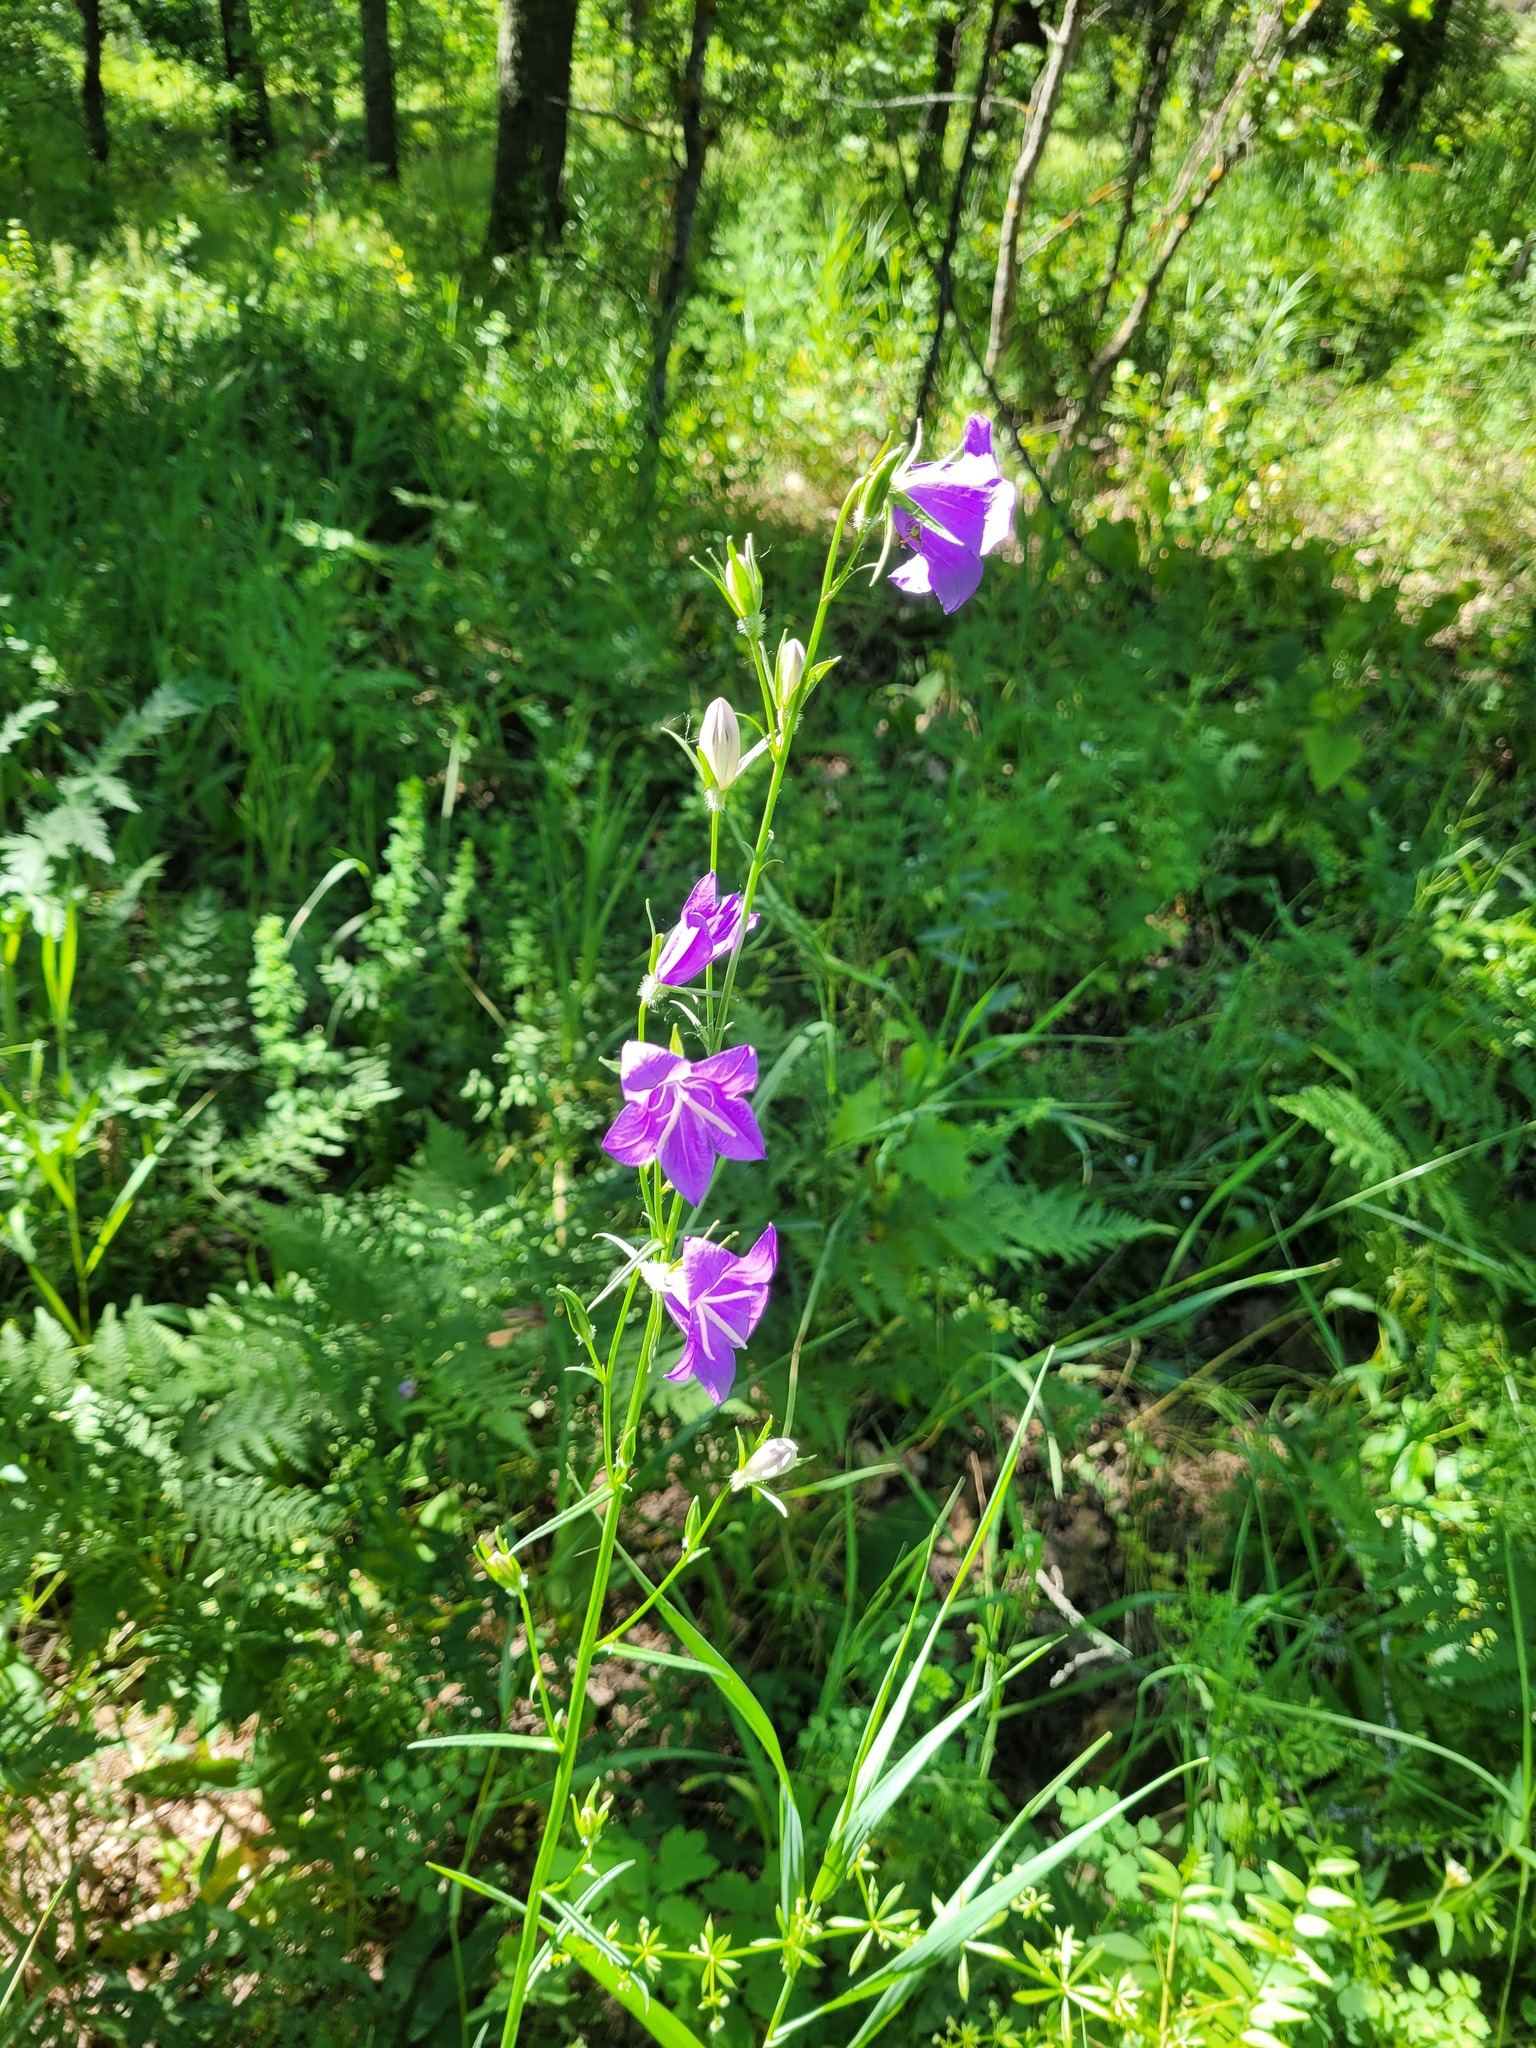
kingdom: Plantae
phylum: Tracheophyta
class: Magnoliopsida
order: Asterales
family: Campanulaceae
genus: Campanula
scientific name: Campanula persicifolia
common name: Peach-leaved bellflower
